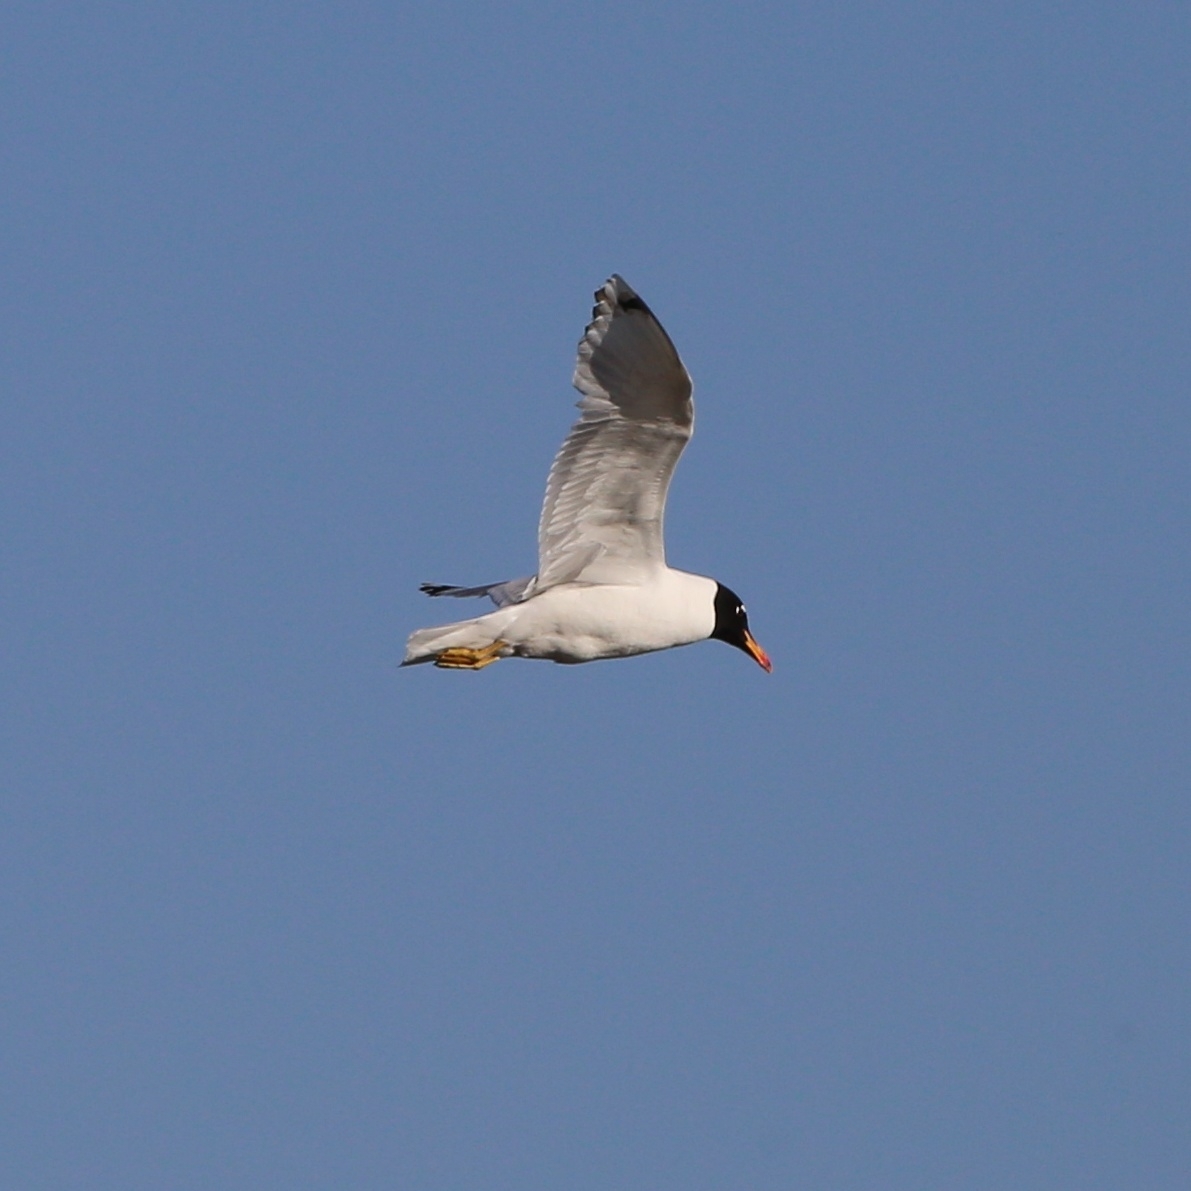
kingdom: Animalia
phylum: Chordata
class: Aves
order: Charadriiformes
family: Laridae
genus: Ichthyaetus
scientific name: Ichthyaetus ichthyaetus
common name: Pallas's gull
